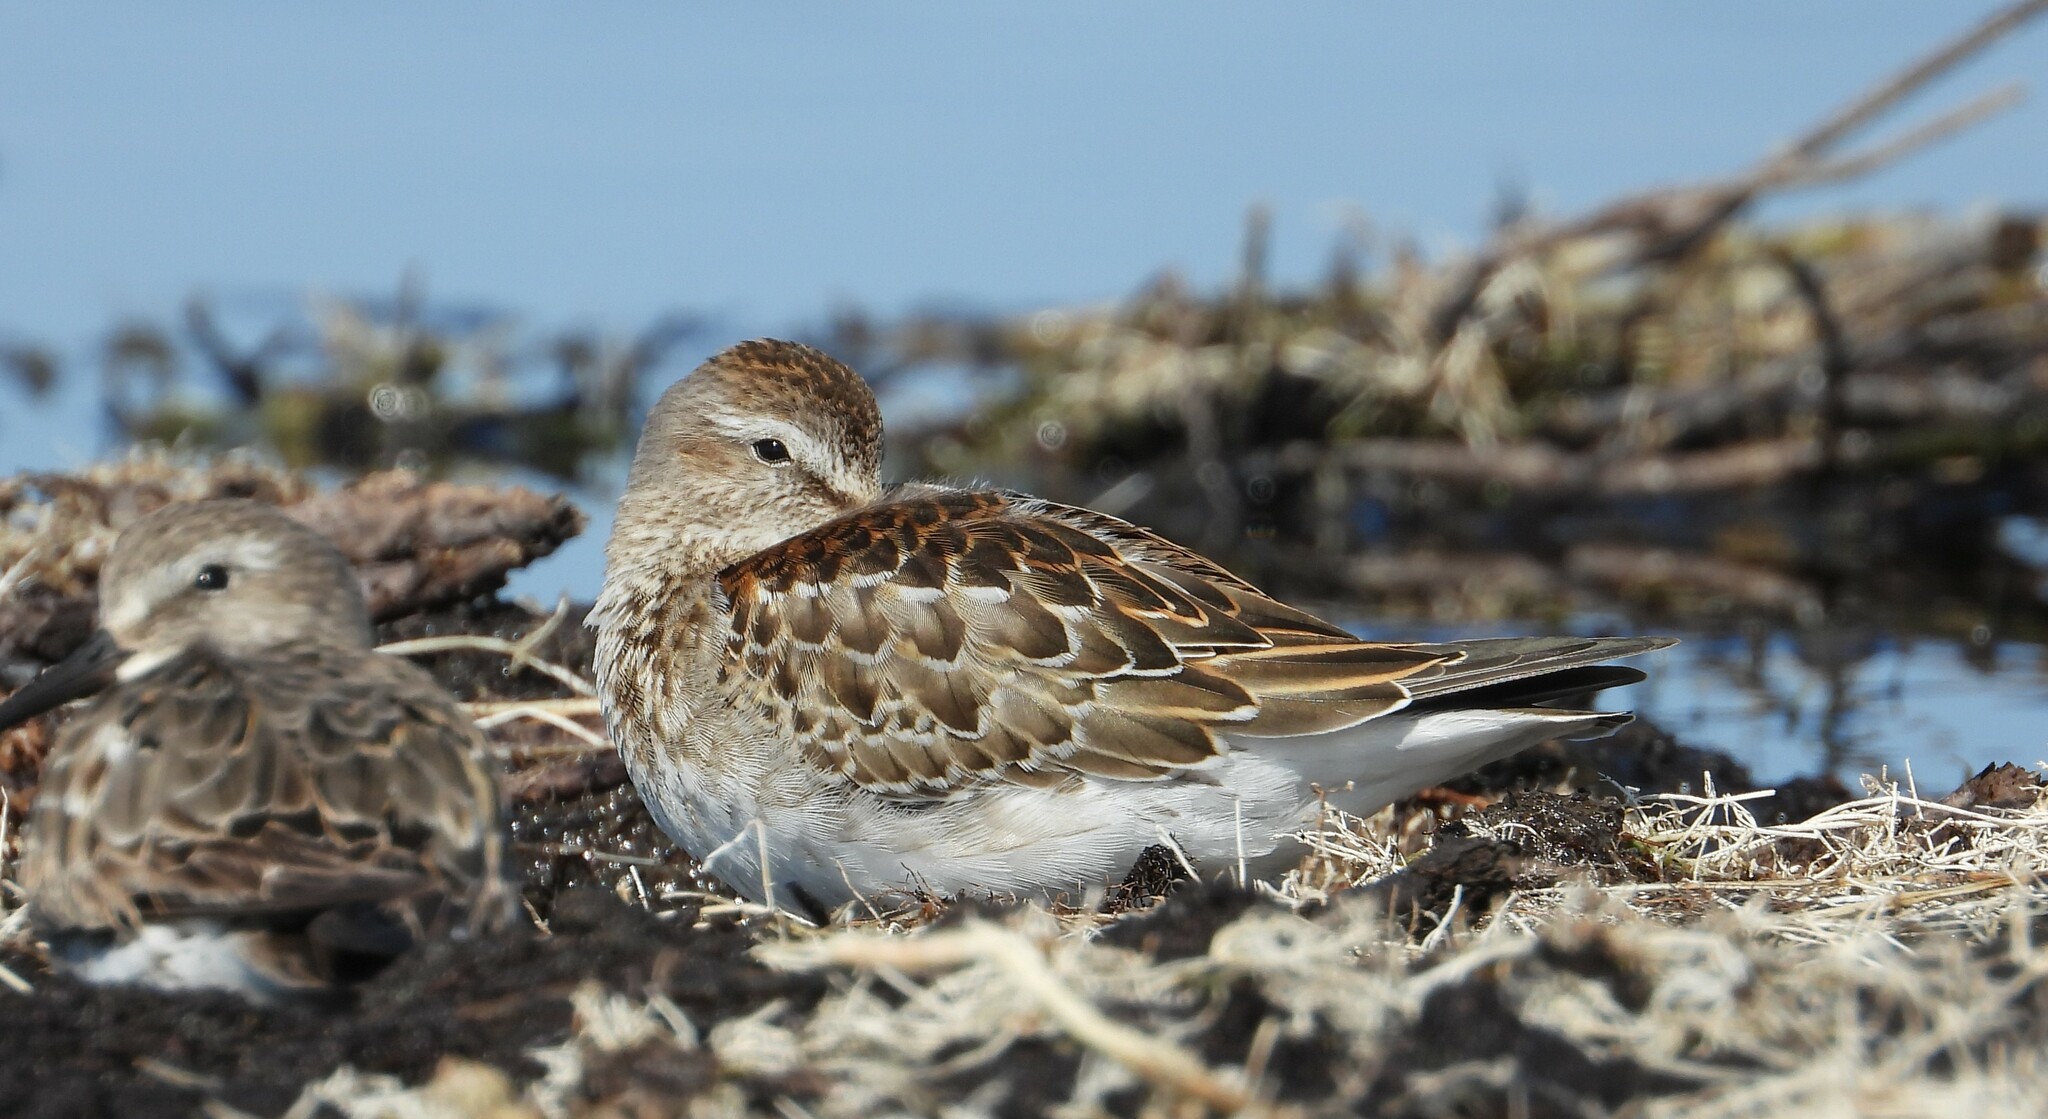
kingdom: Animalia
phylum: Chordata
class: Aves
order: Charadriiformes
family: Scolopacidae
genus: Calidris
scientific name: Calidris fuscicollis
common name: White-rumped sandpiper
